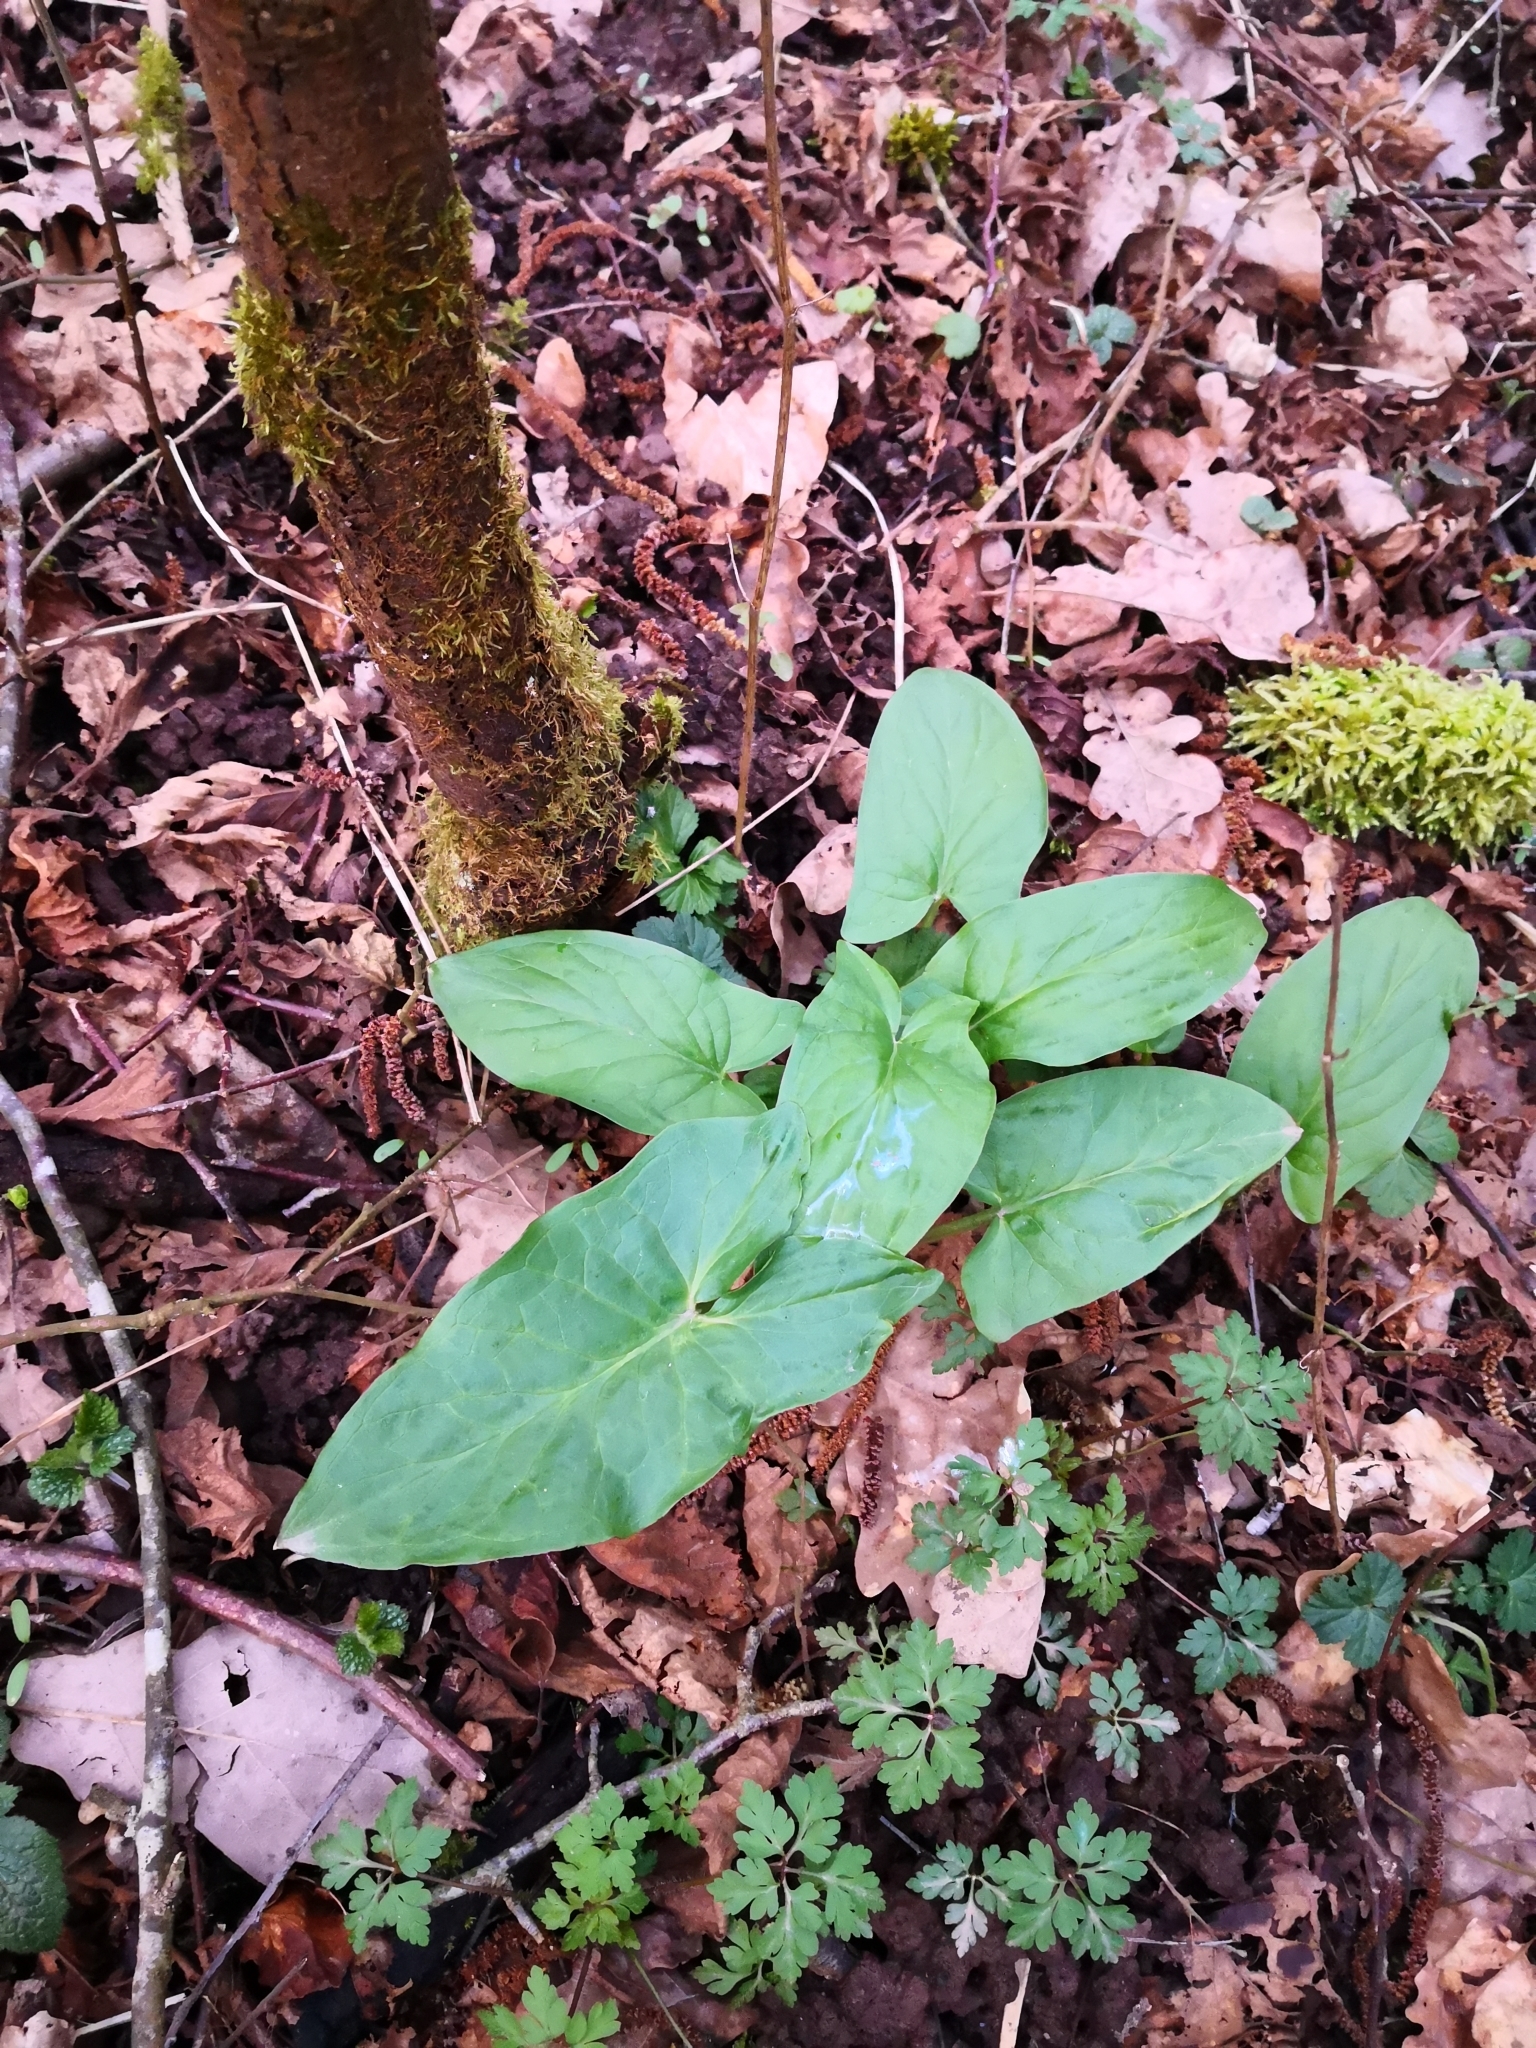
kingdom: Plantae
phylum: Tracheophyta
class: Liliopsida
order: Alismatales
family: Araceae
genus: Arum
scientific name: Arum maculatum
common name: Lords-and-ladies
